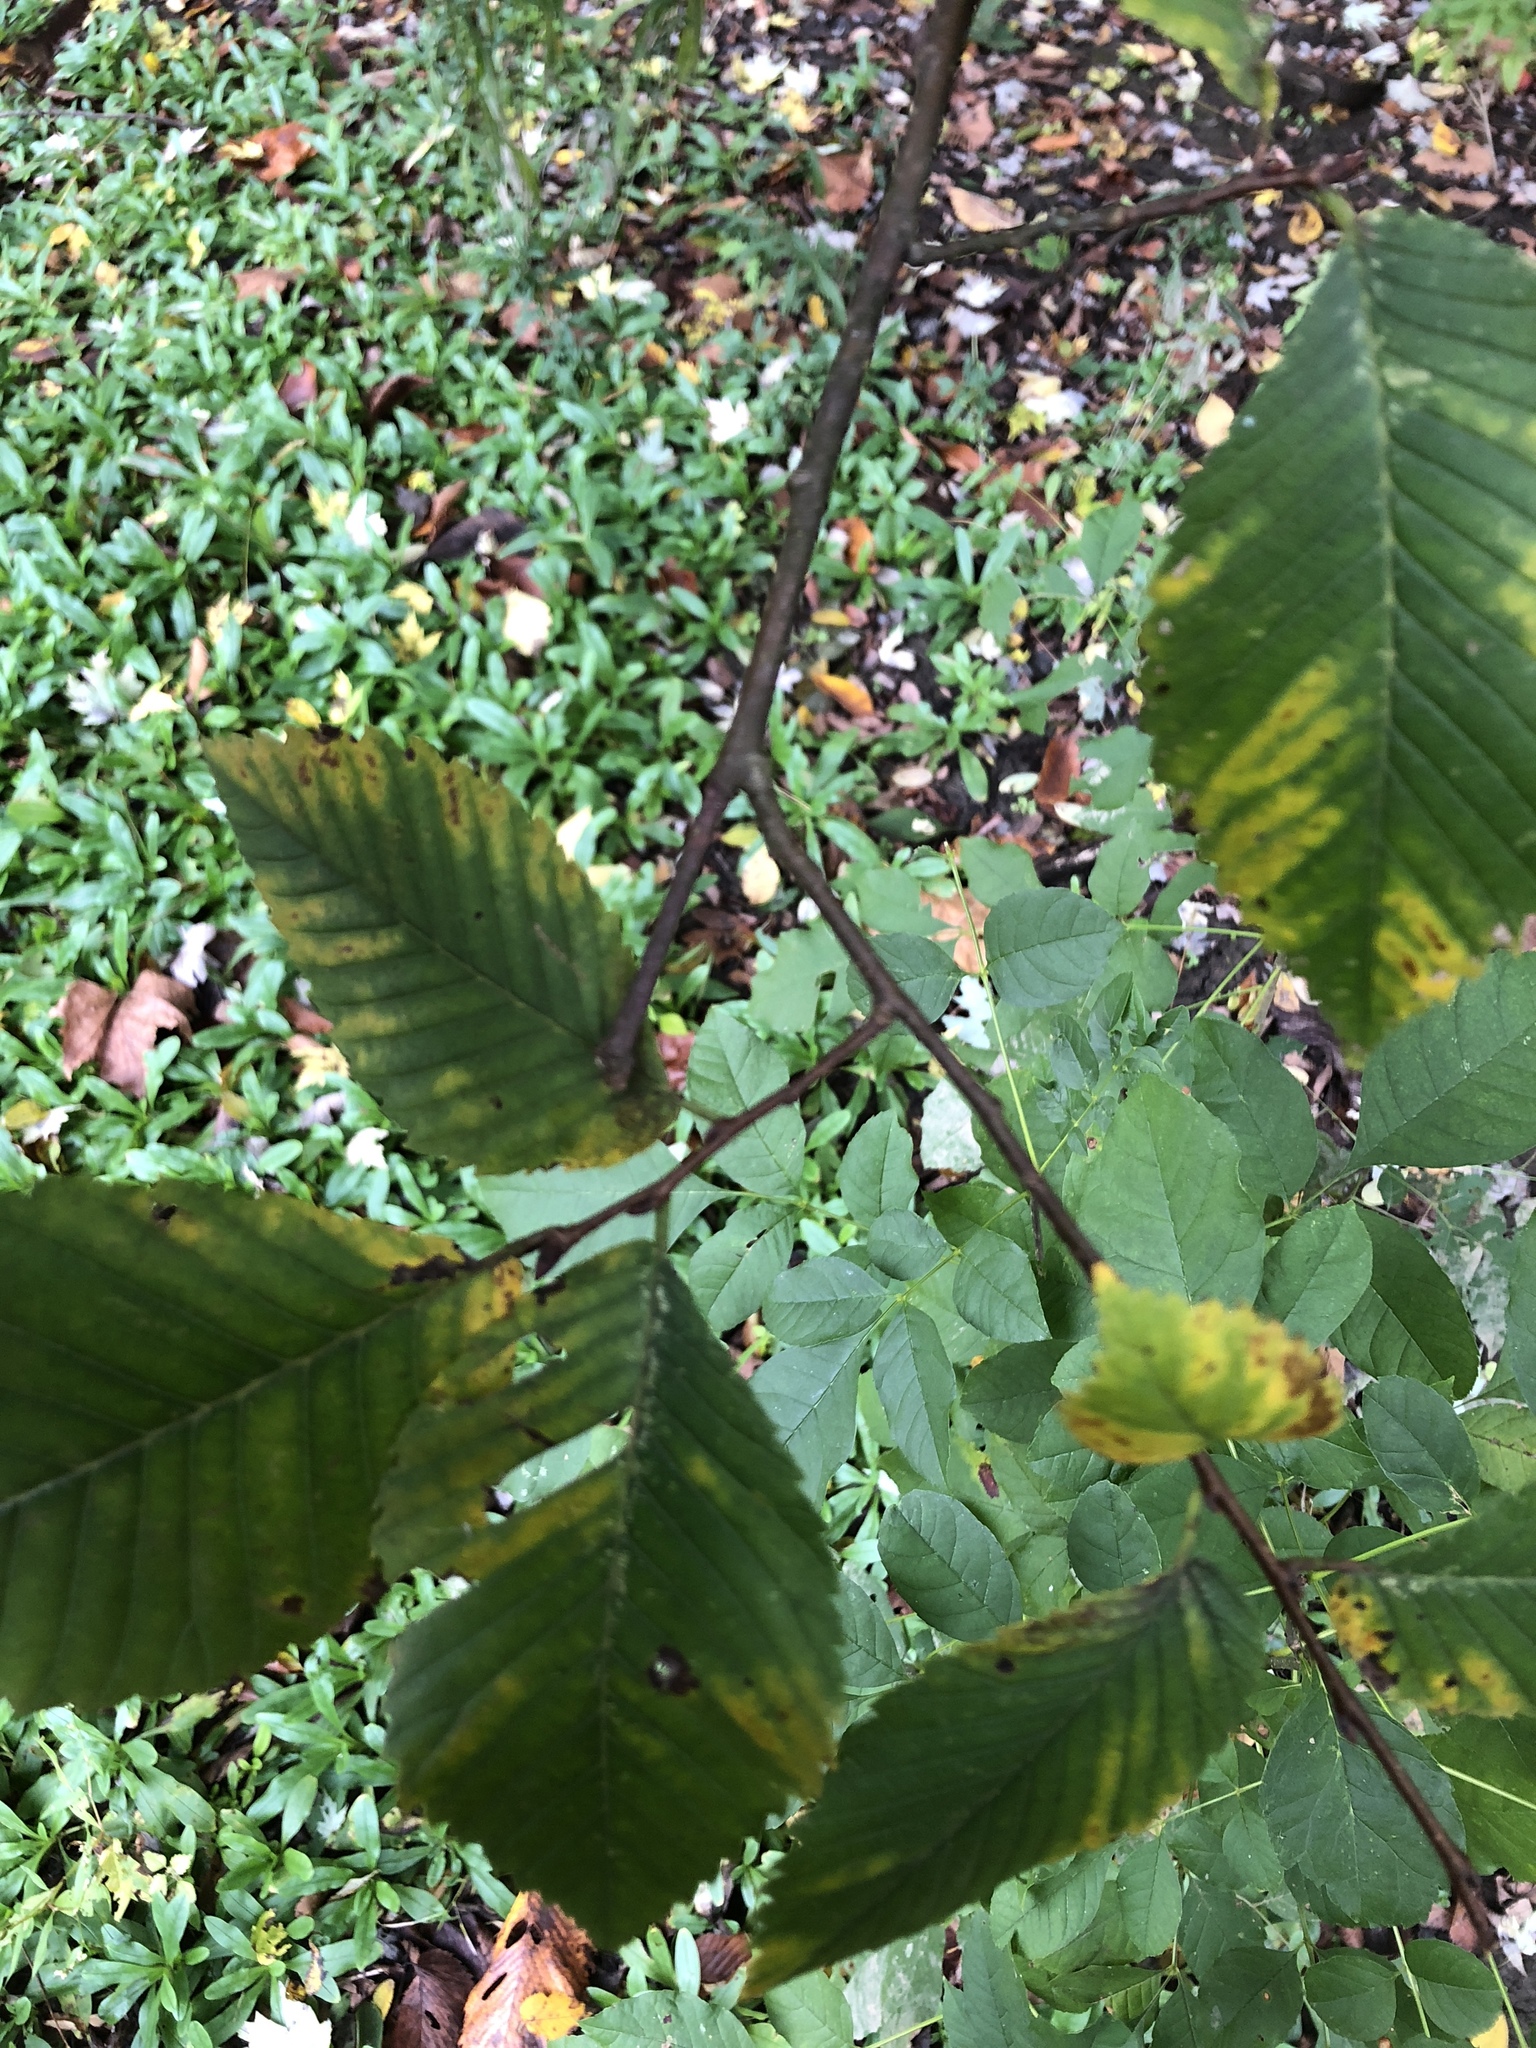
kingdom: Plantae
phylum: Tracheophyta
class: Magnoliopsida
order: Rosales
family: Ulmaceae
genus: Ulmus
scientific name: Ulmus americana
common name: American elm
